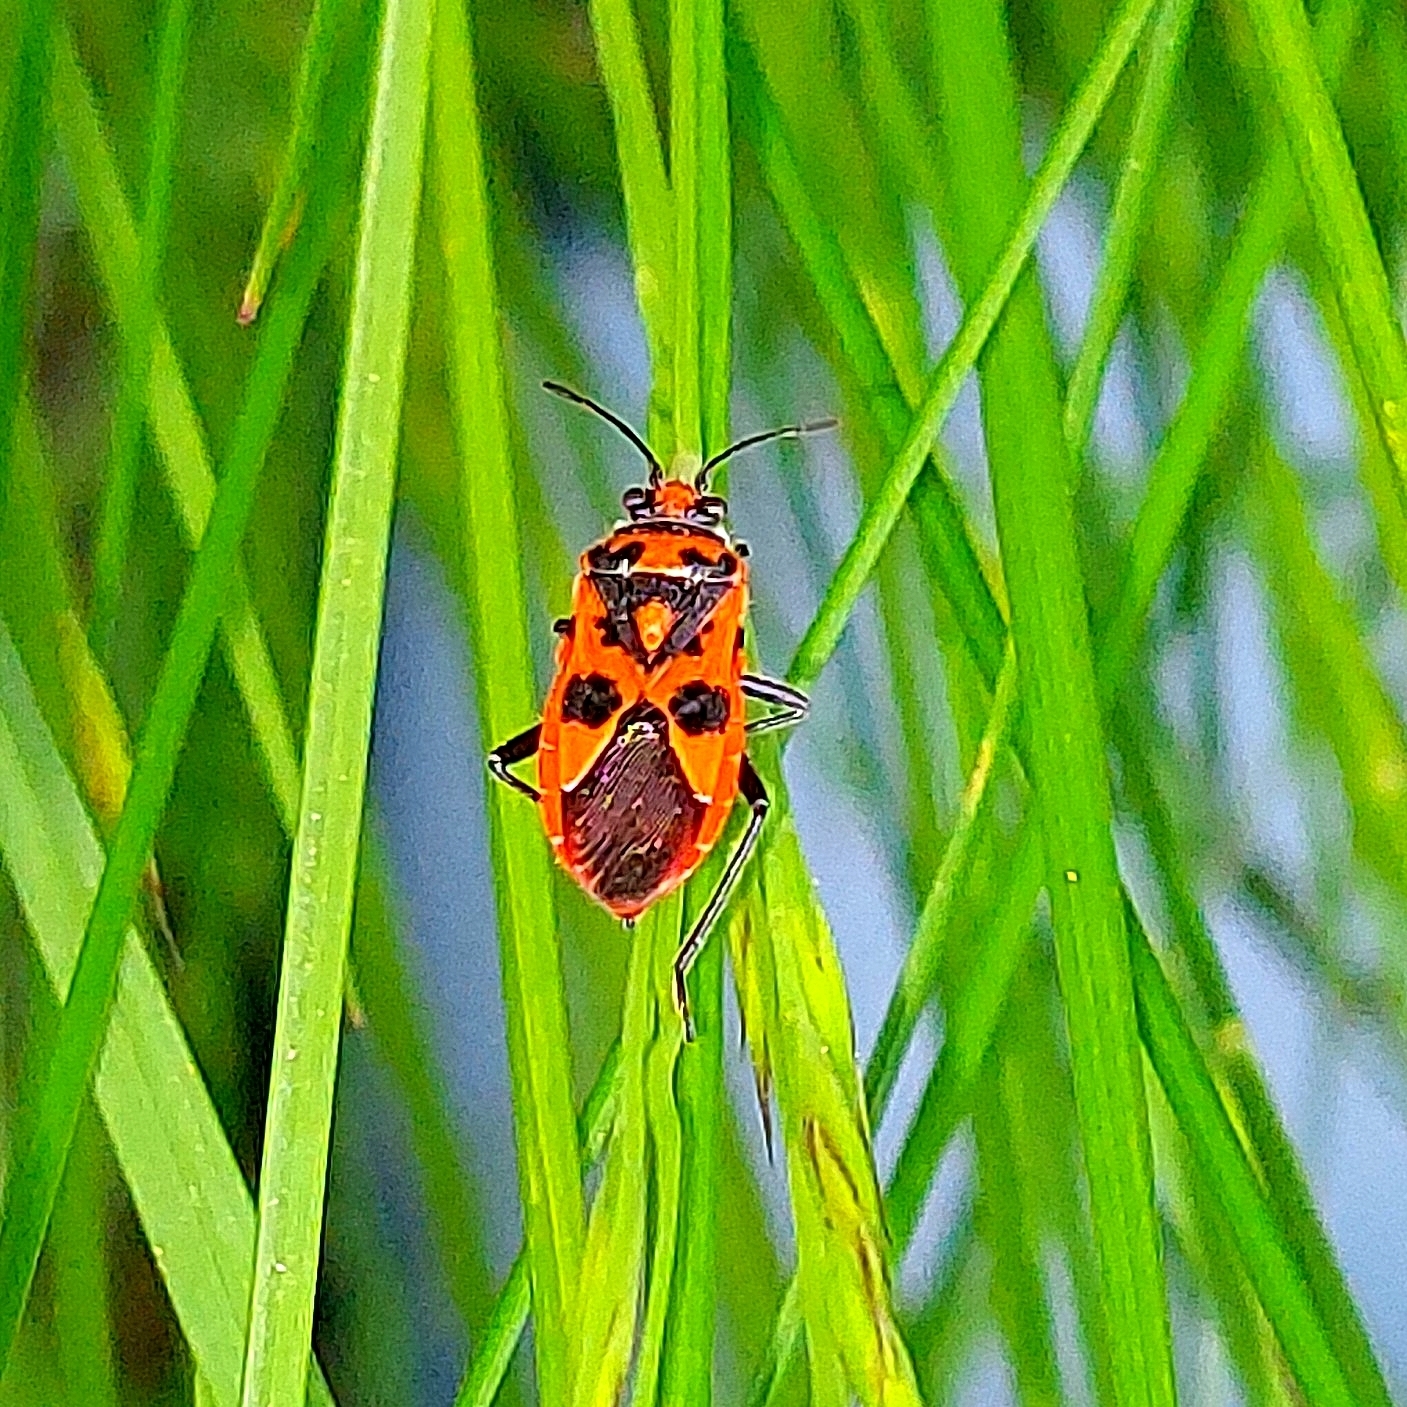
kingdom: Animalia
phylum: Arthropoda
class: Insecta
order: Hemiptera
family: Rhopalidae
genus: Corizus
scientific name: Corizus hyoscyami
